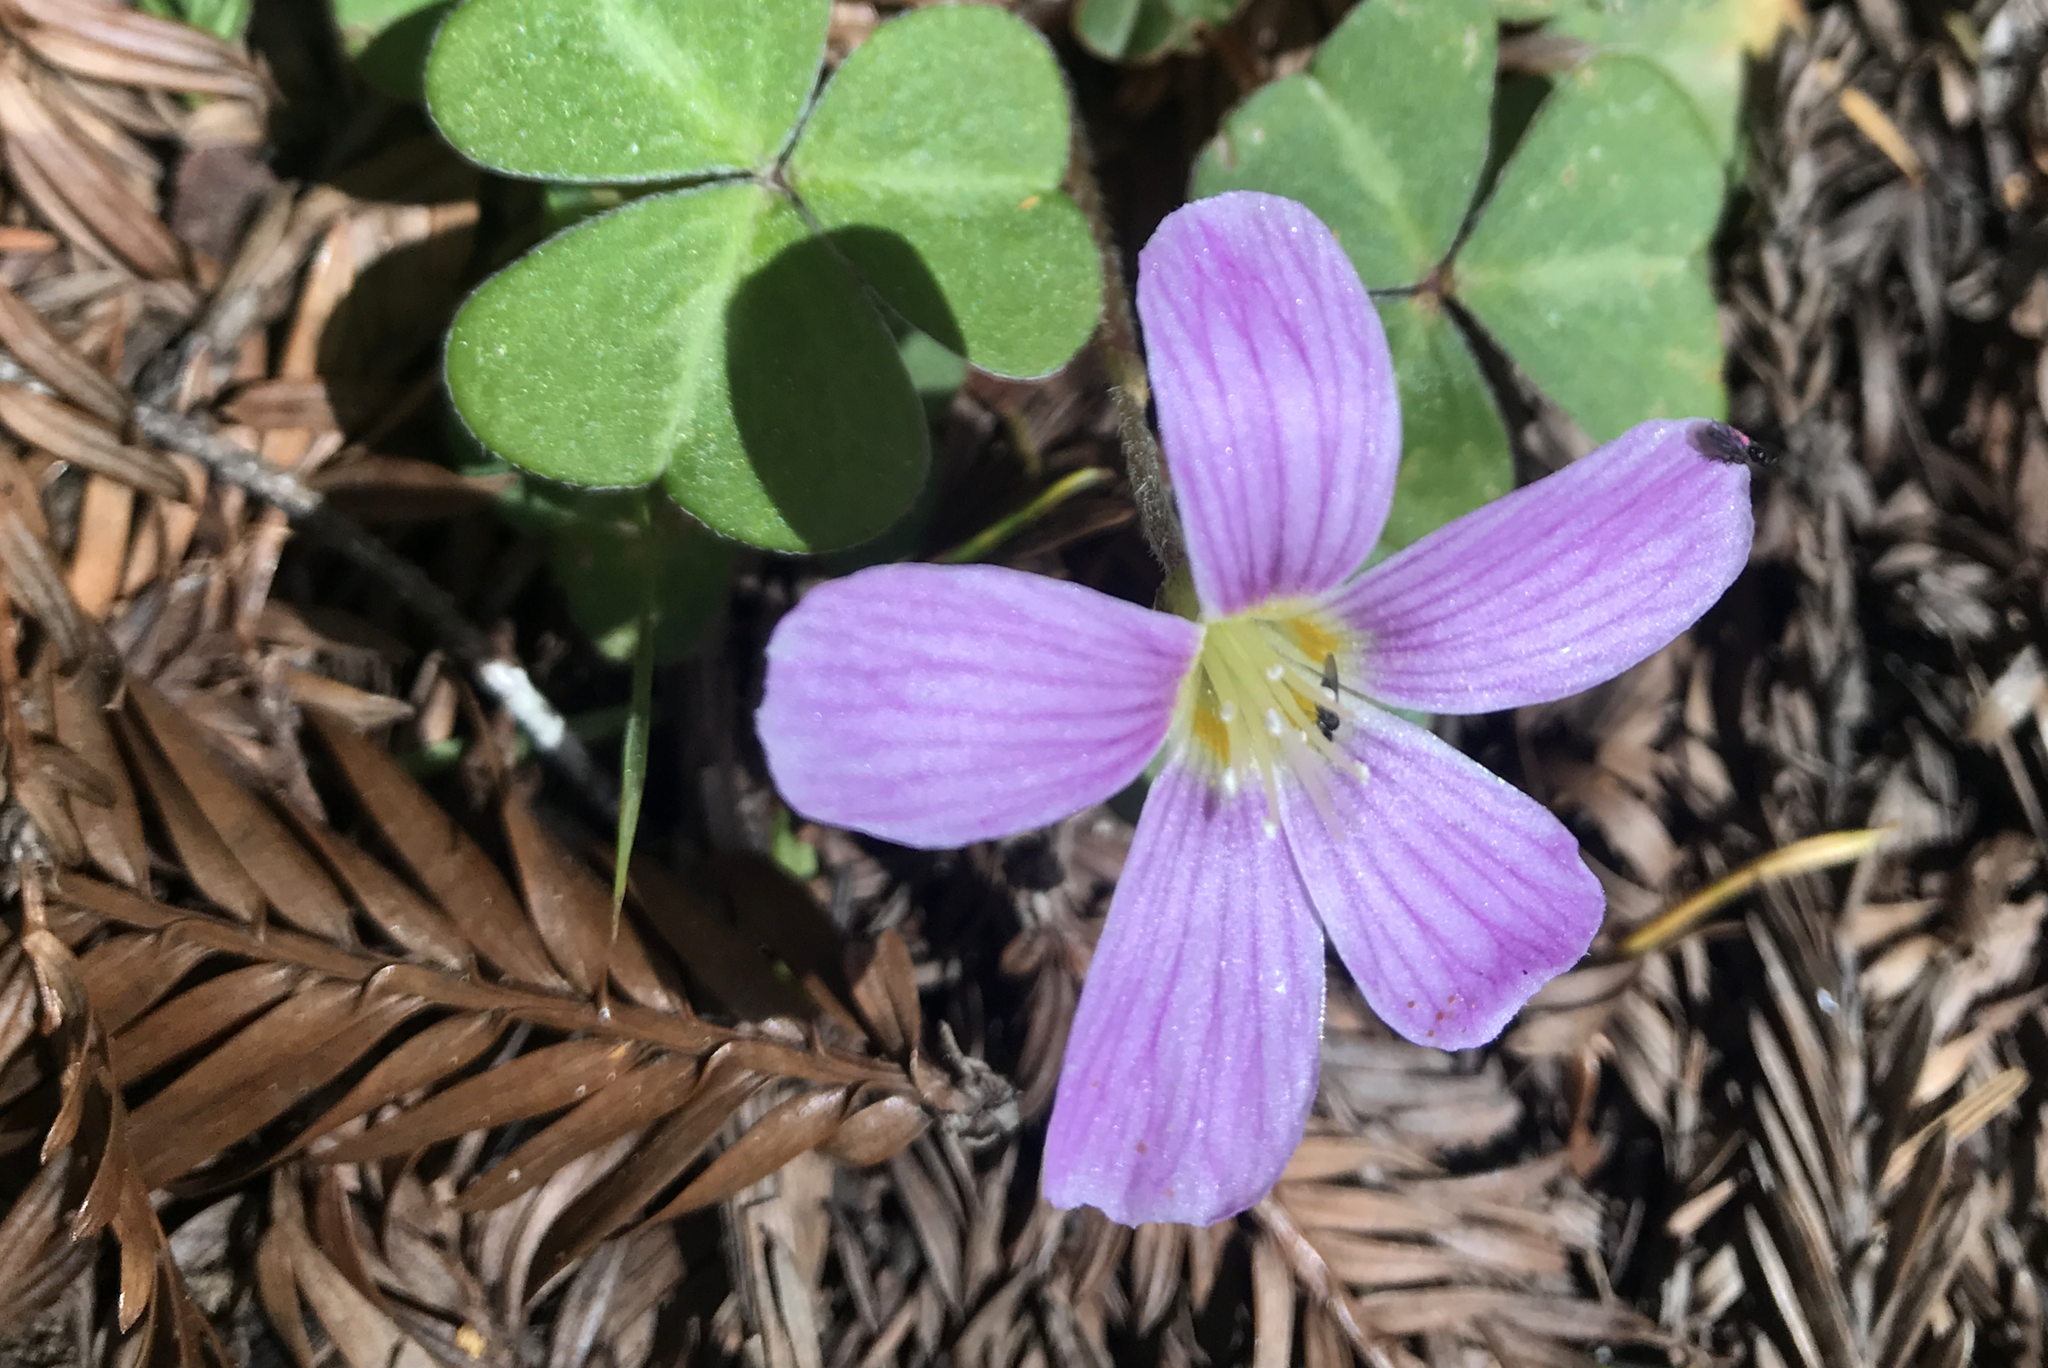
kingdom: Plantae
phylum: Tracheophyta
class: Magnoliopsida
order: Oxalidales
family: Oxalidaceae
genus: Oxalis
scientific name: Oxalis oregana
